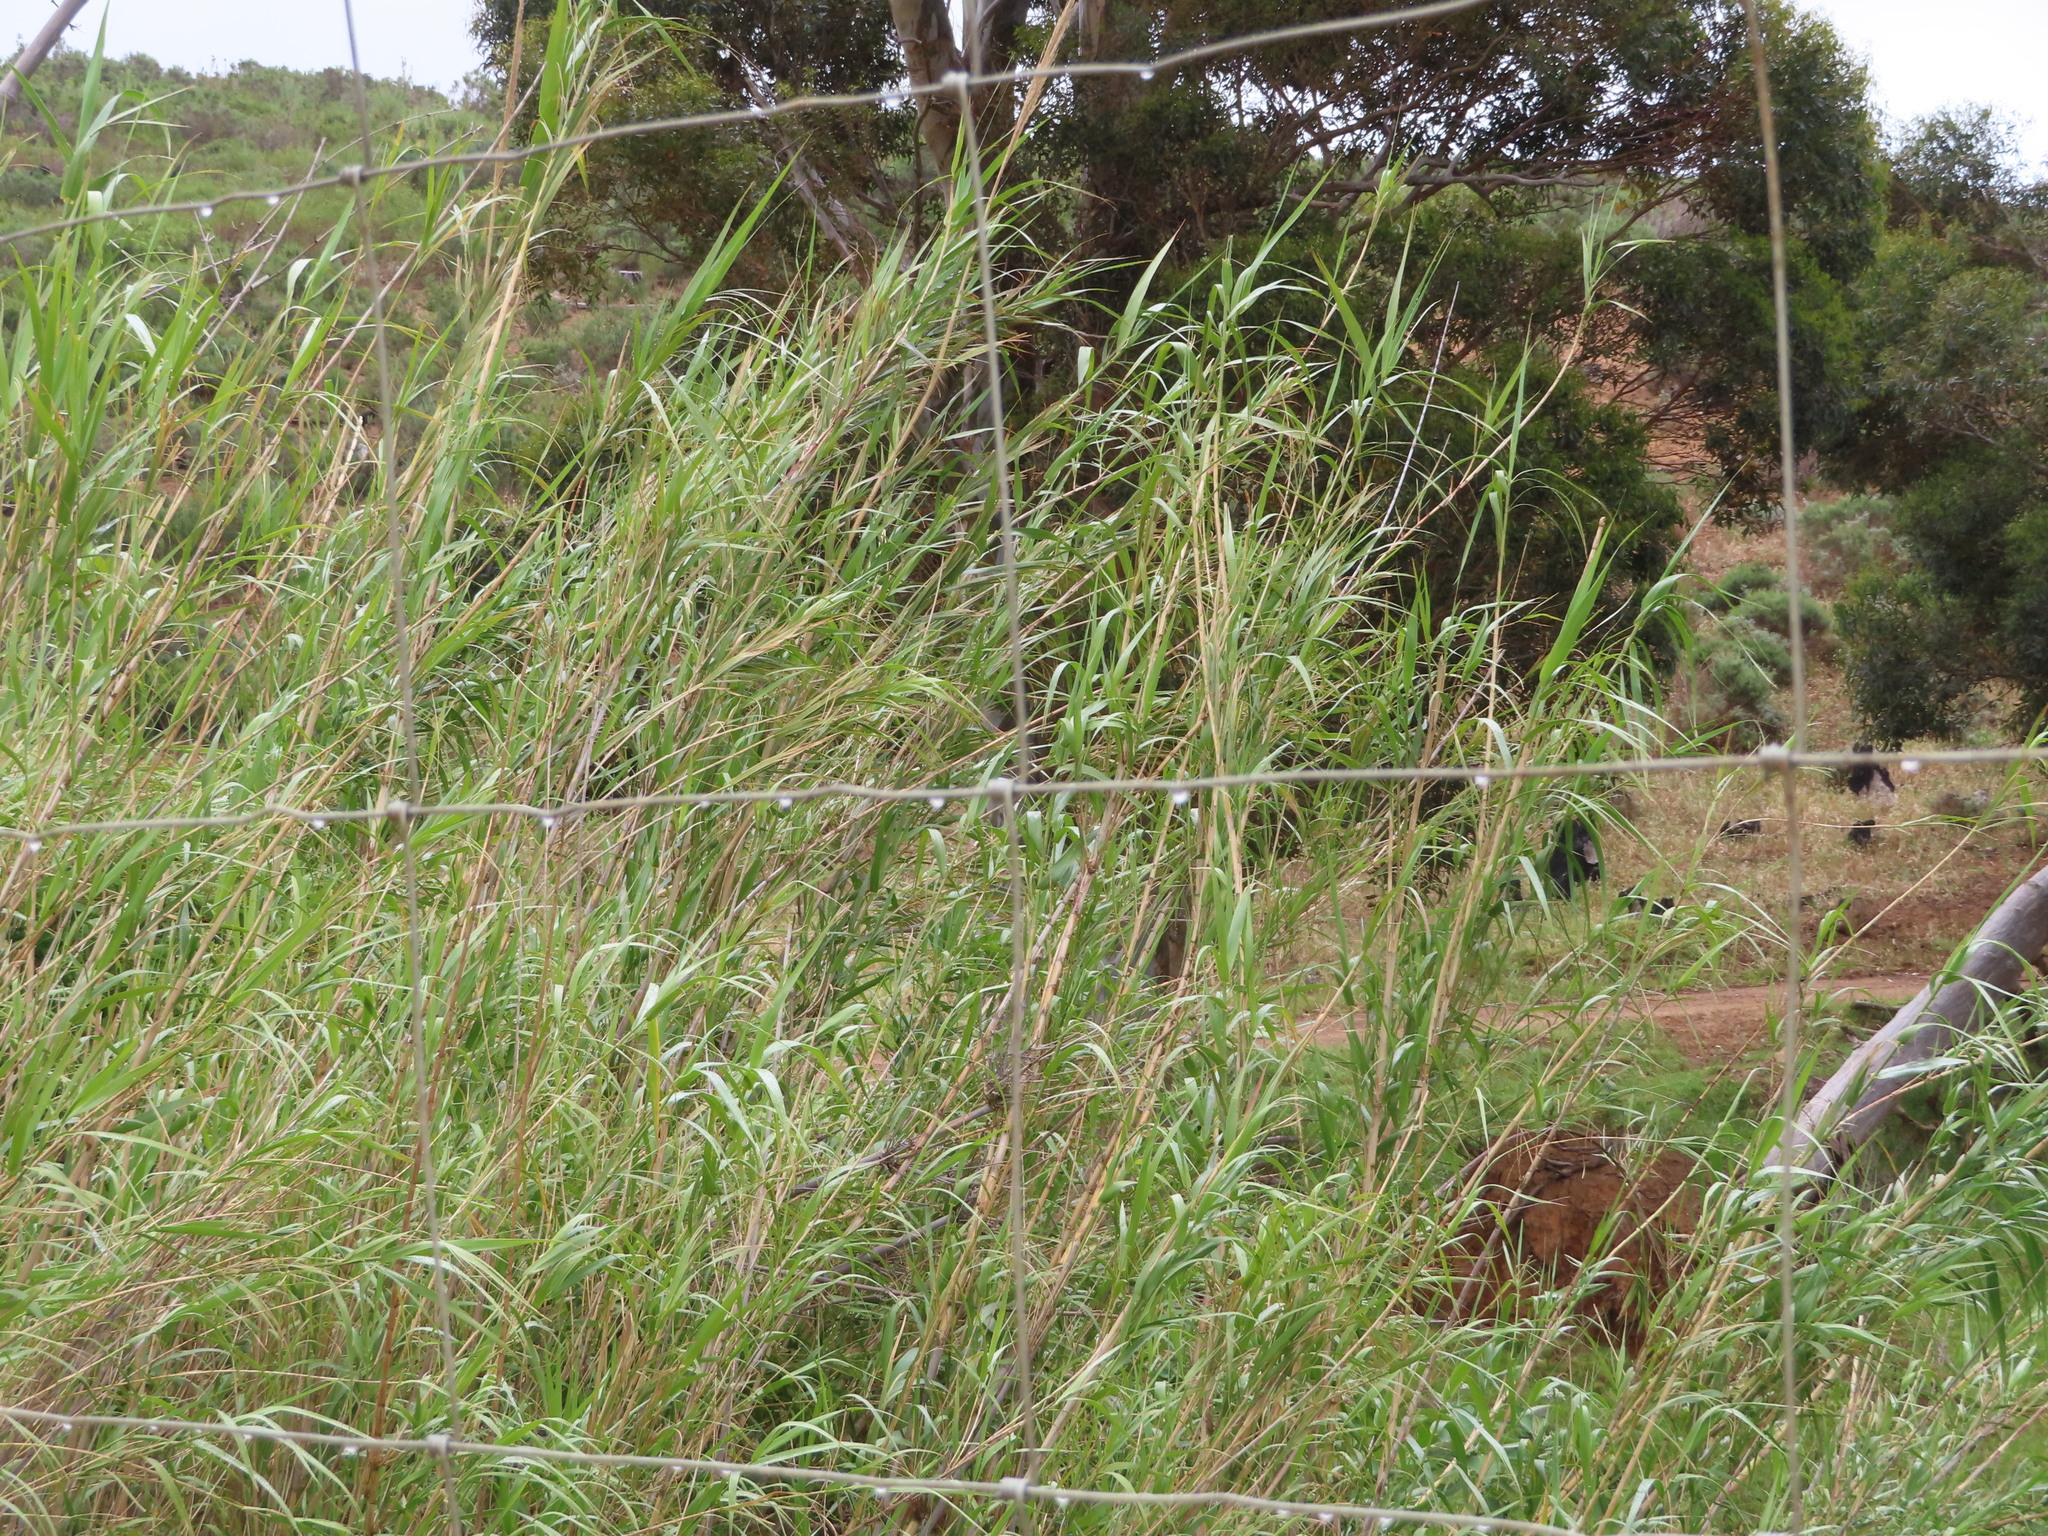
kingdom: Plantae
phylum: Tracheophyta
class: Liliopsida
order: Poales
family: Poaceae
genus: Arundo
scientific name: Arundo donax
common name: Giant reed
